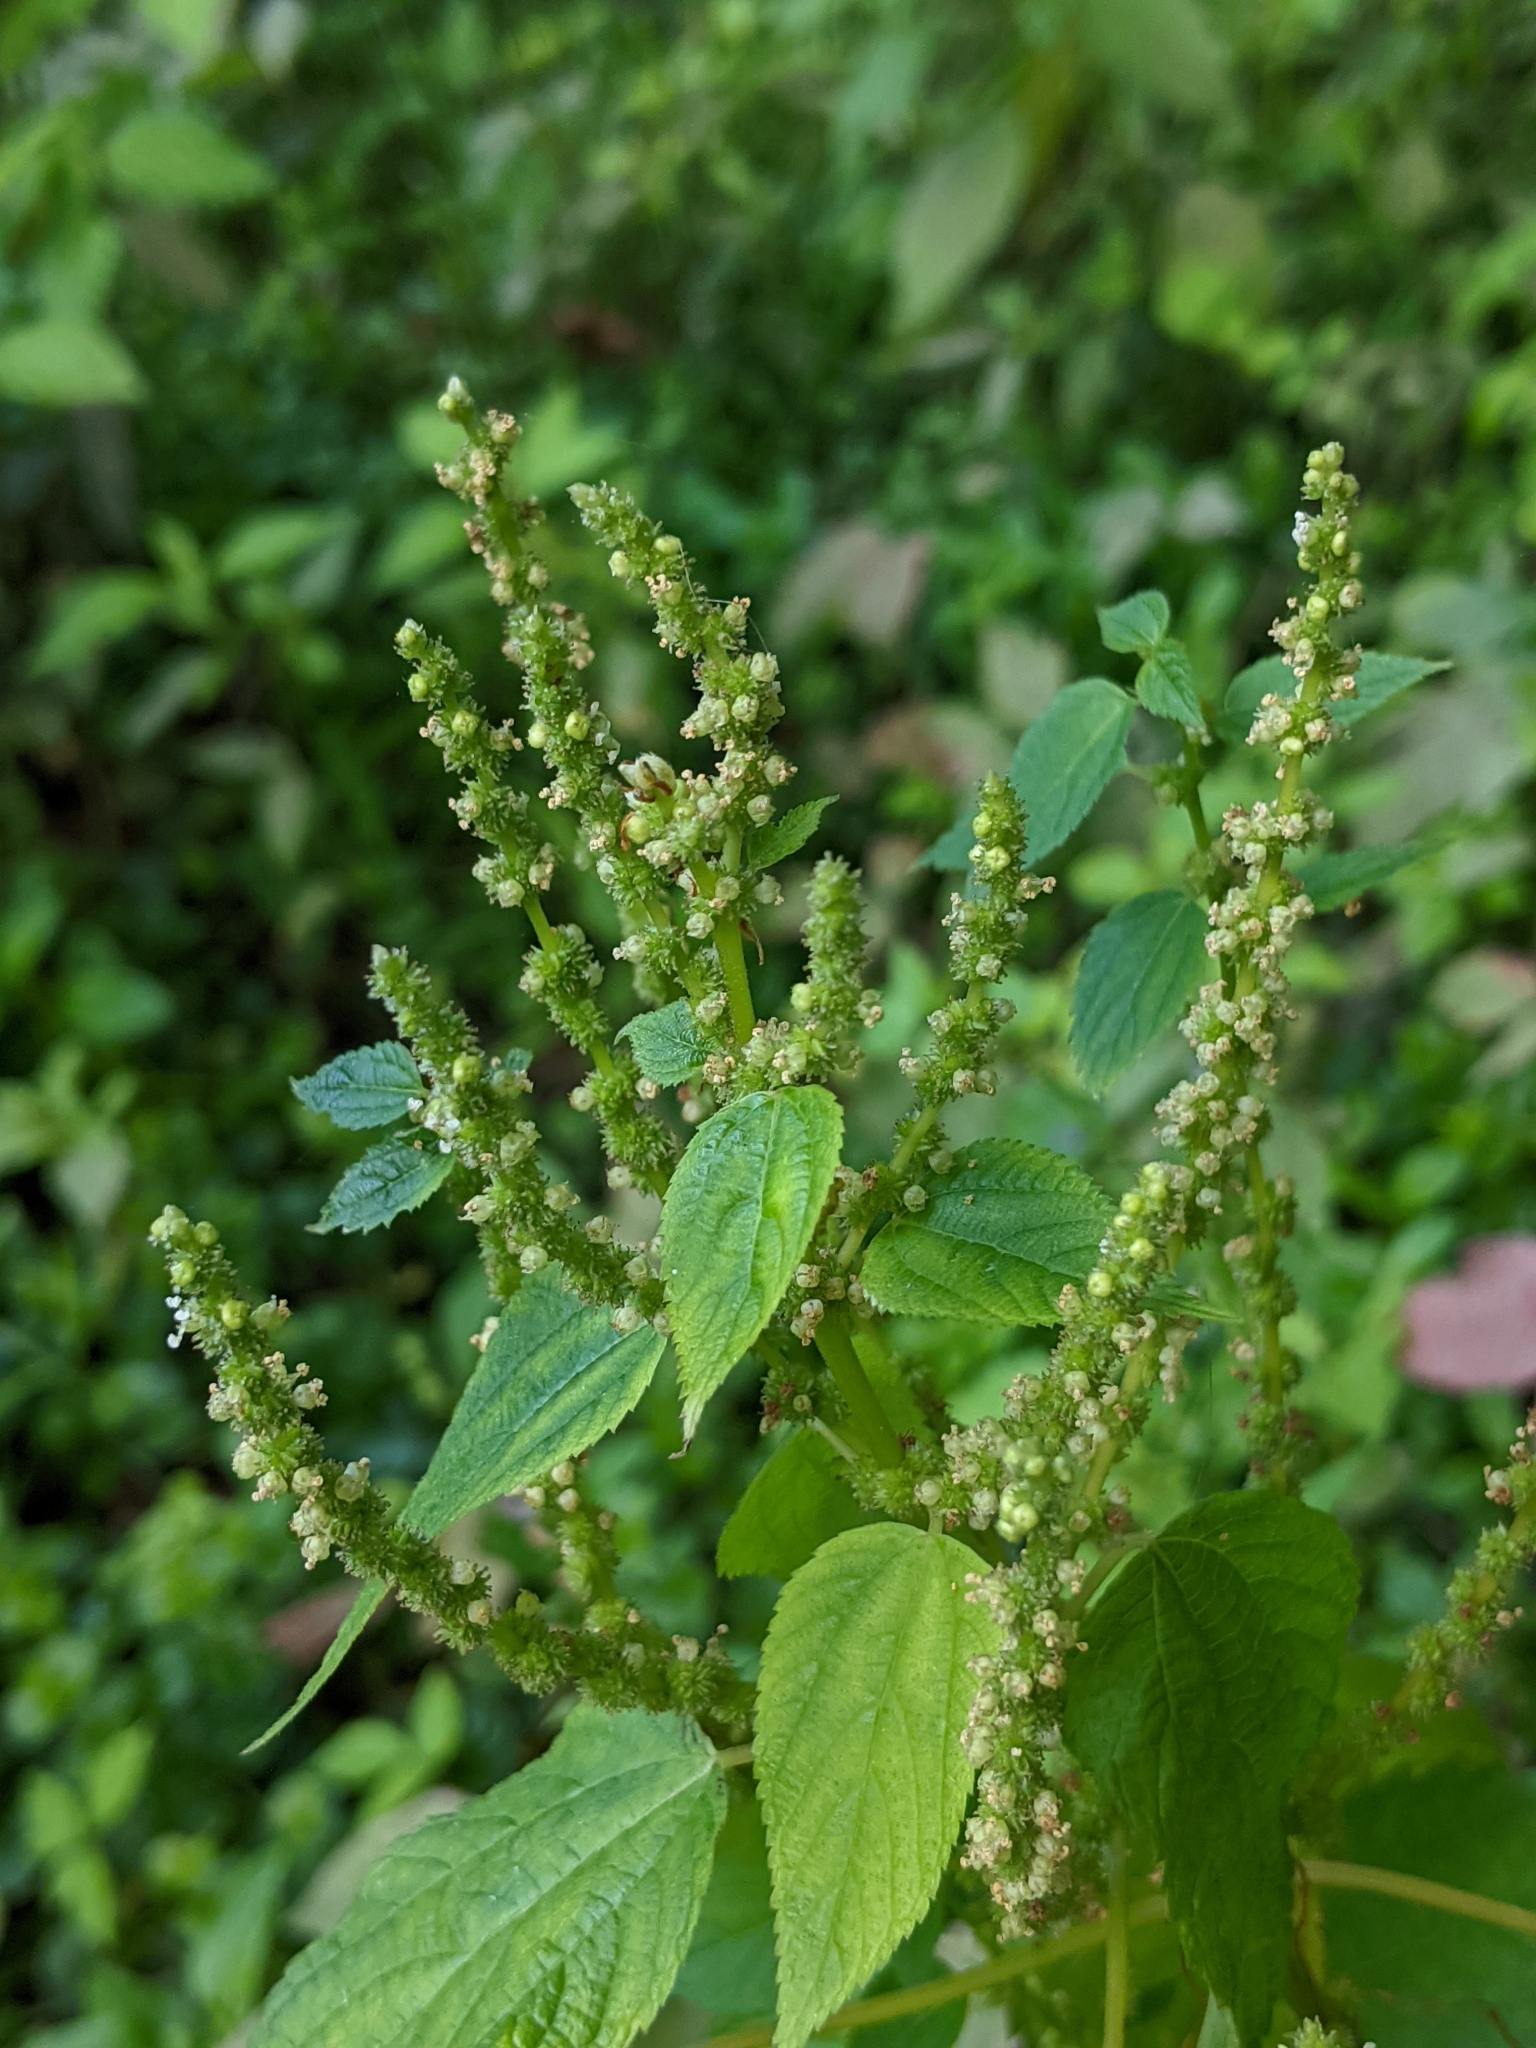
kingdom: Plantae
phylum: Tracheophyta
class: Magnoliopsida
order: Rosales
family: Urticaceae
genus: Boehmeria
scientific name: Boehmeria cylindrica
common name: Bog-hemp
